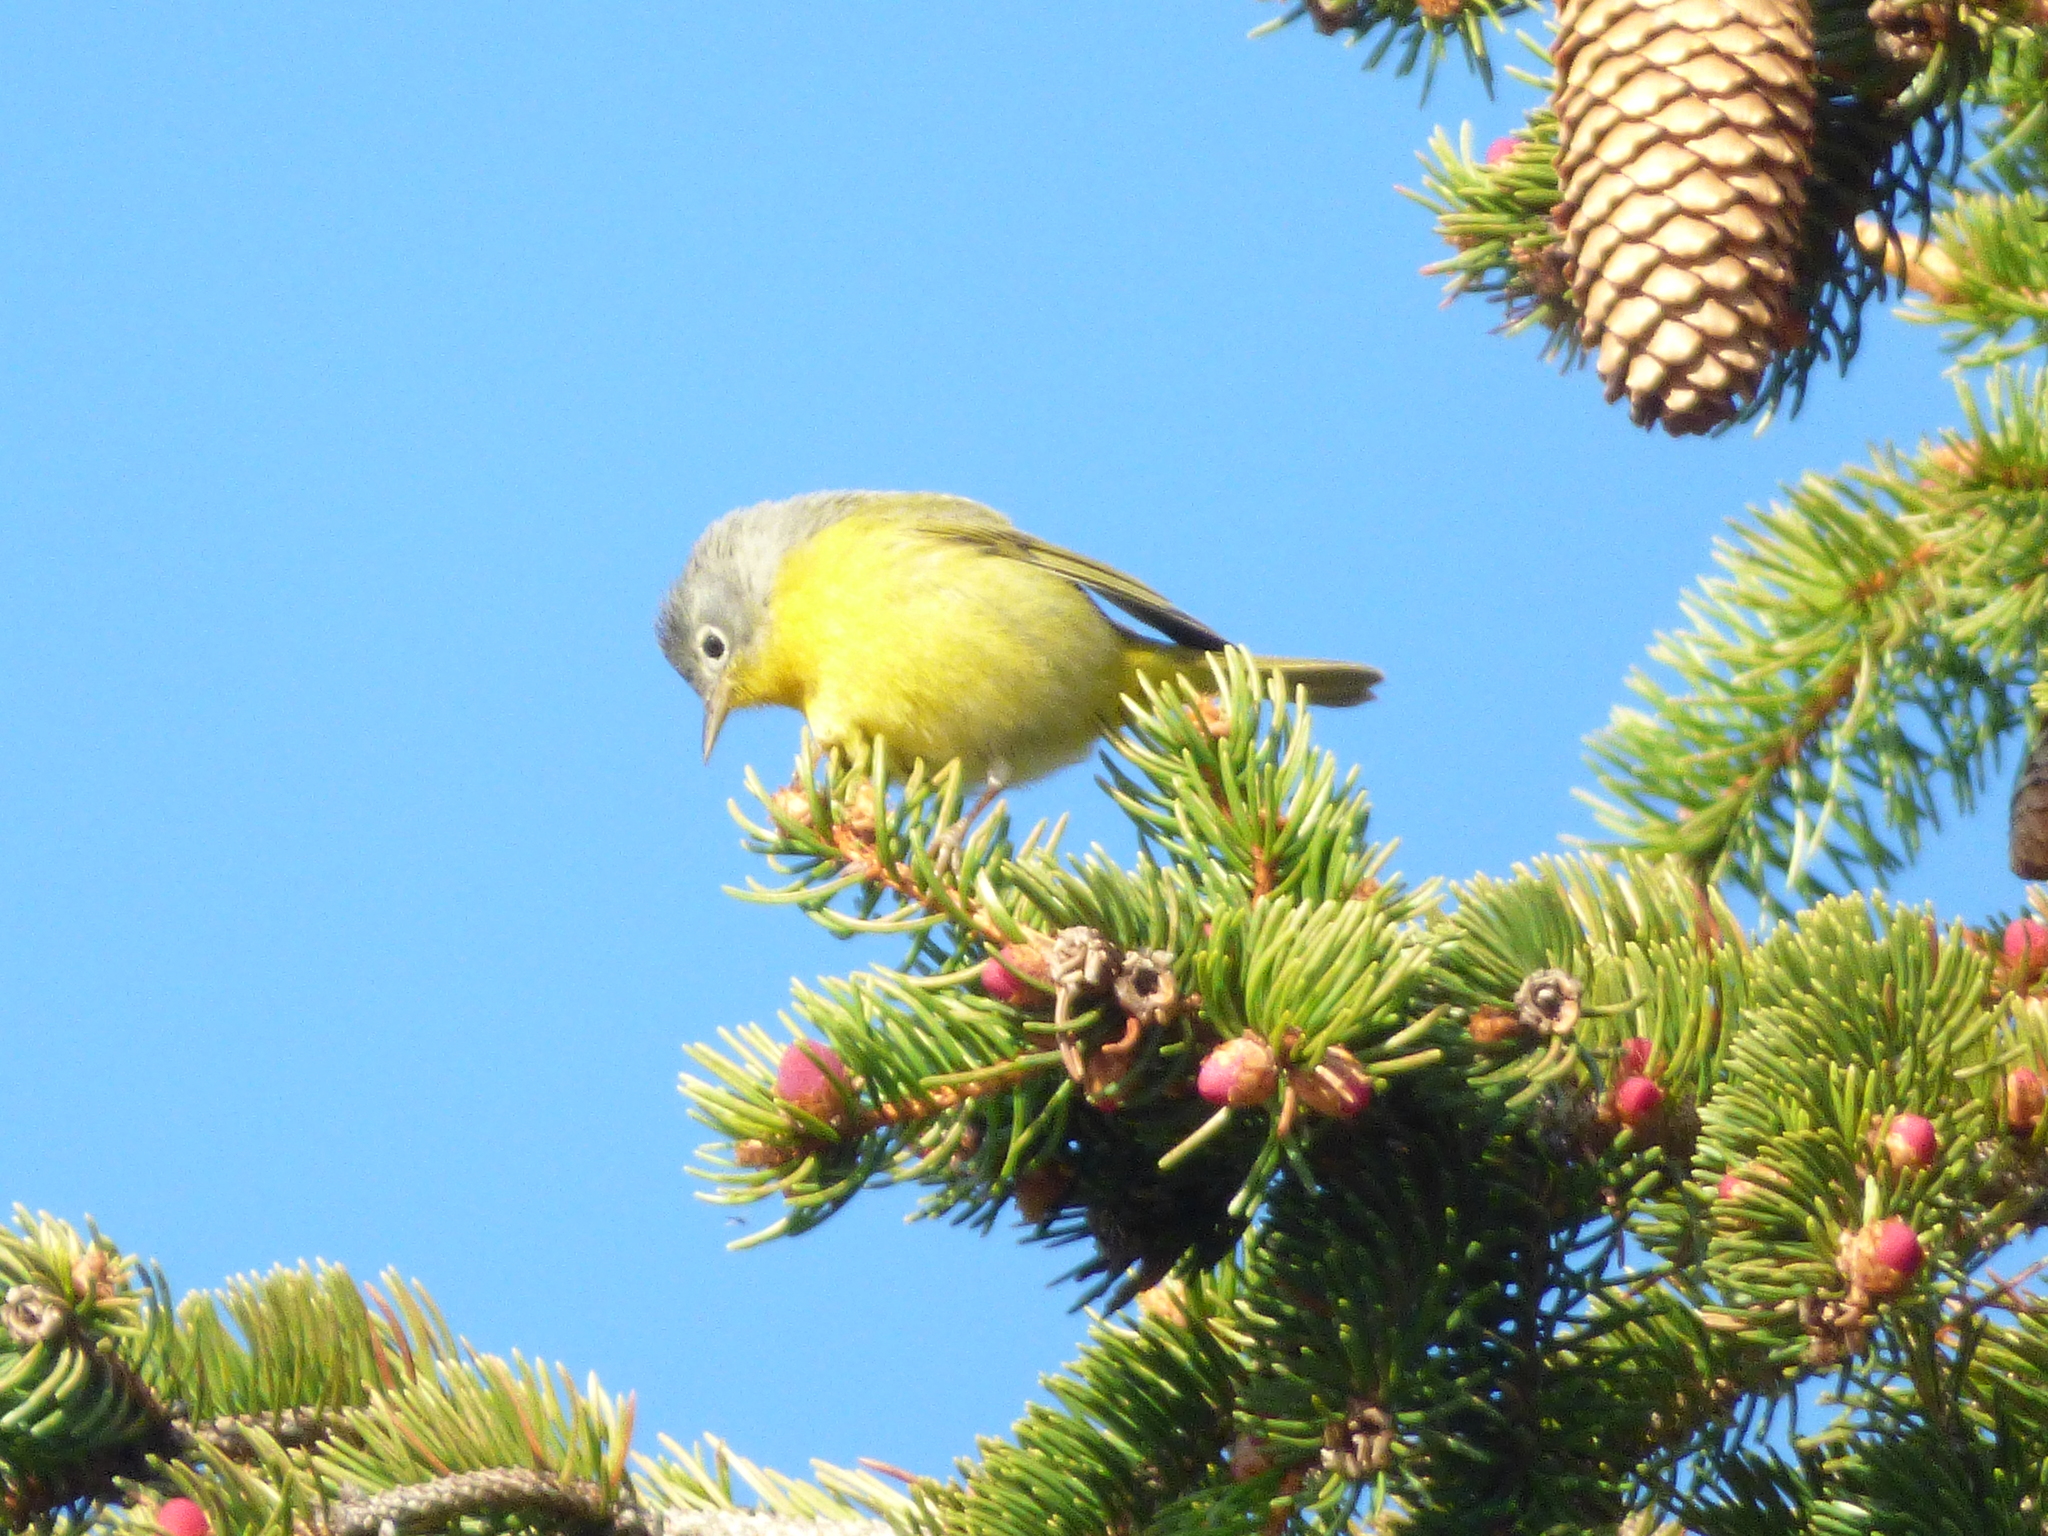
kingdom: Animalia
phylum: Chordata
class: Aves
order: Passeriformes
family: Parulidae
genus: Leiothlypis
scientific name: Leiothlypis ruficapilla
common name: Nashville warbler
